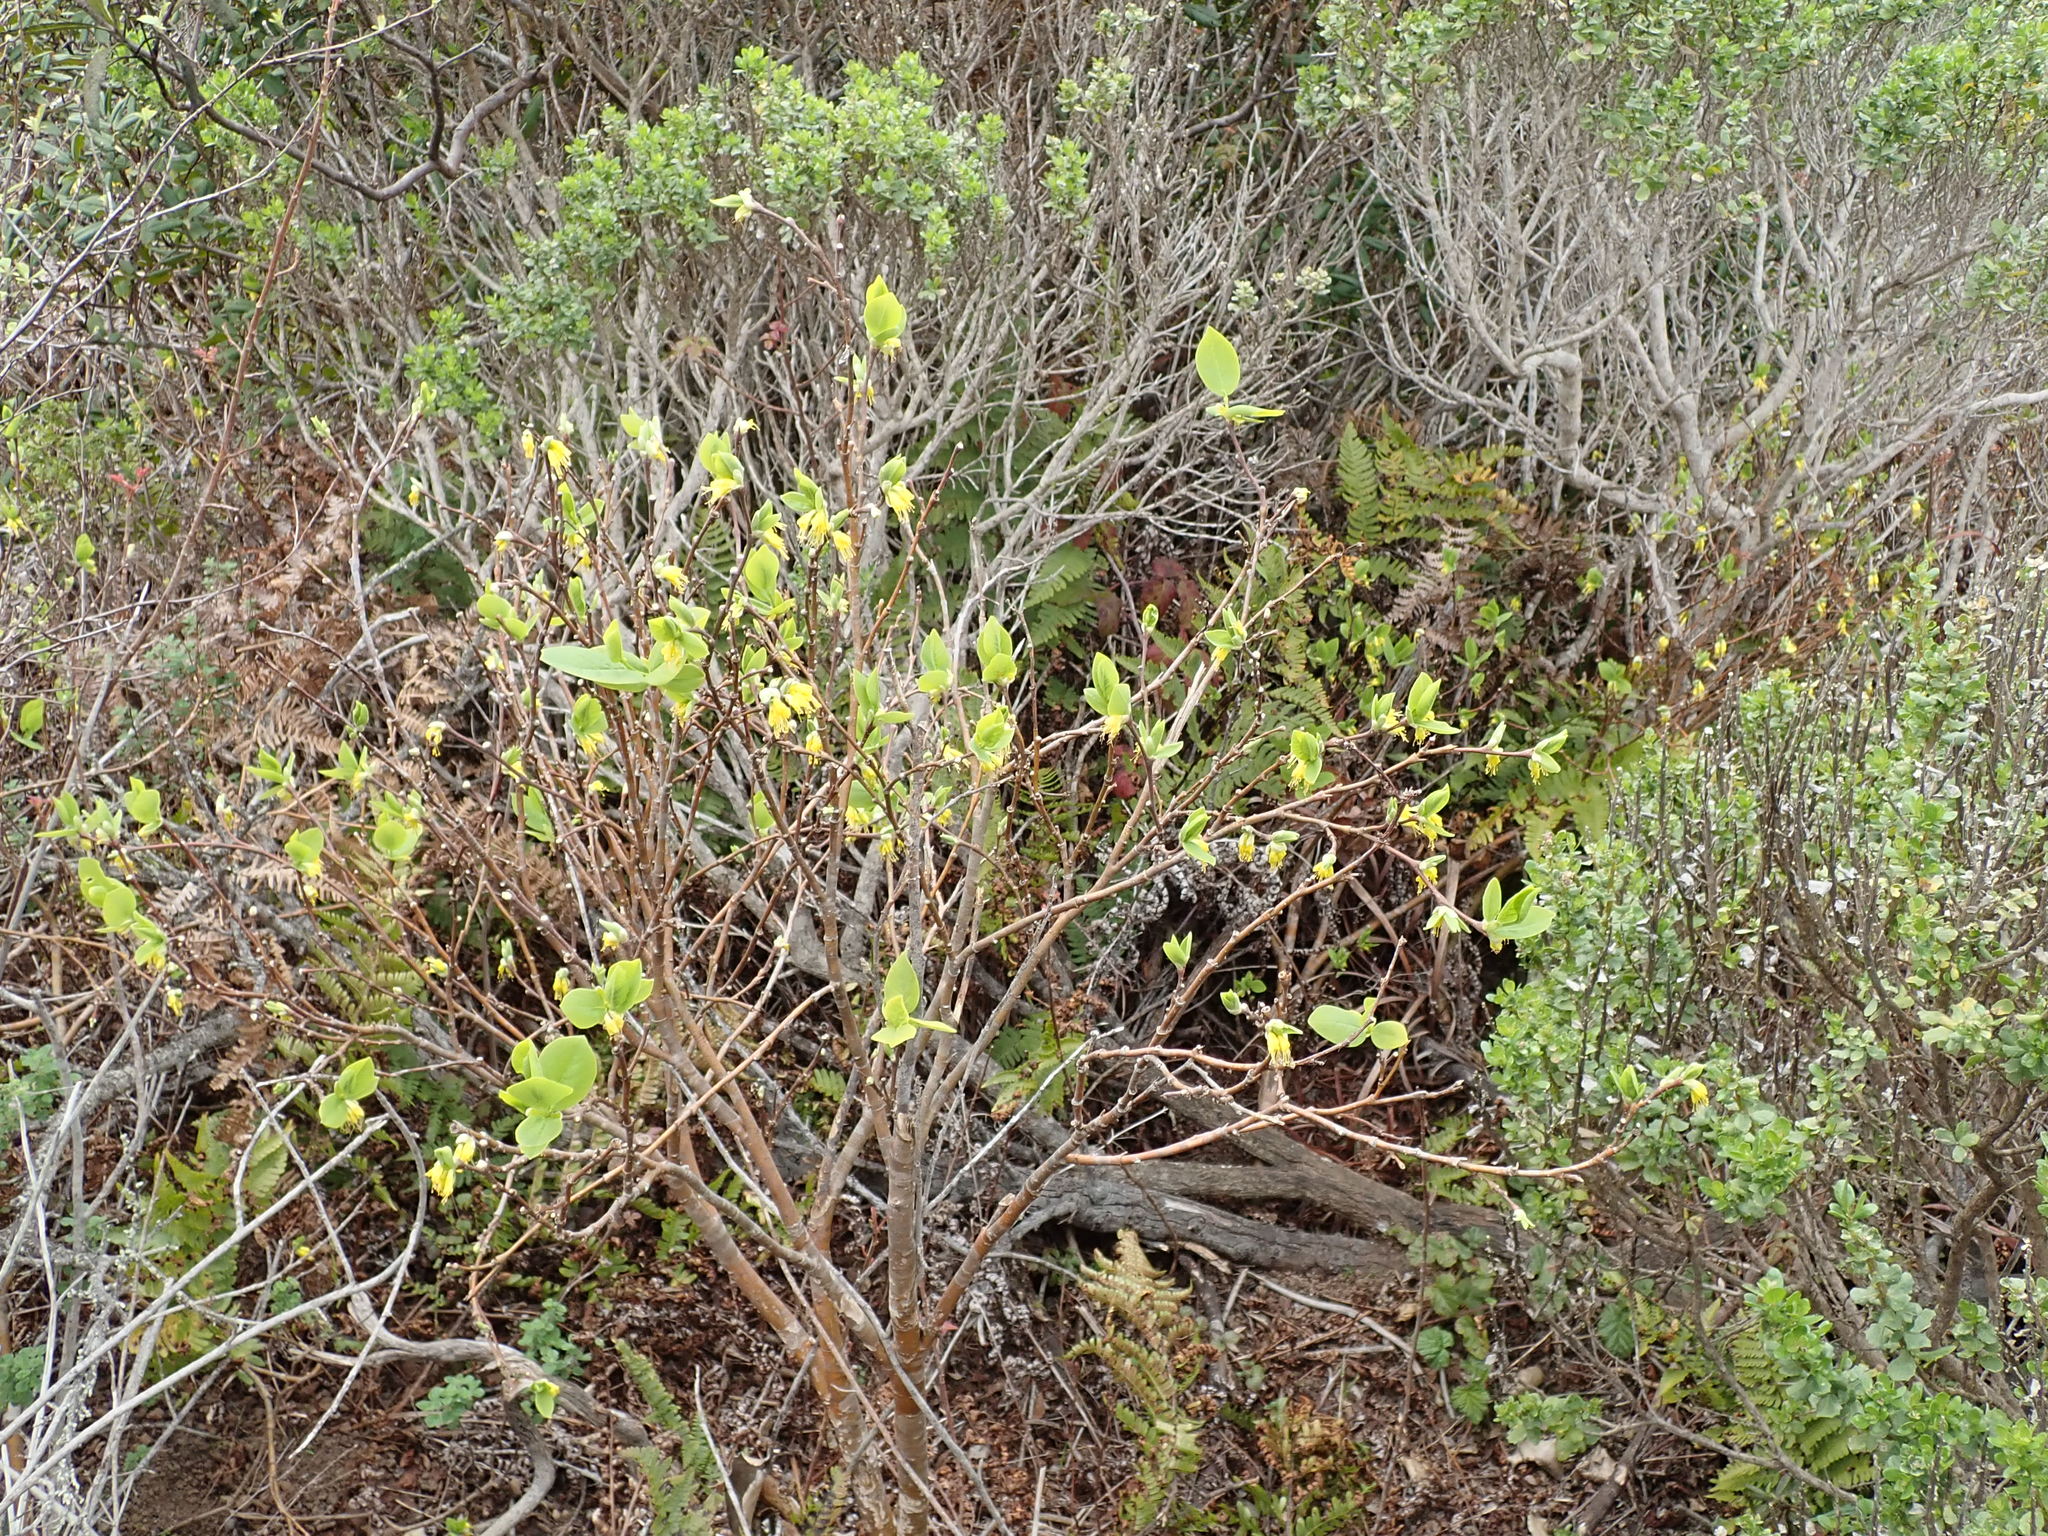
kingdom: Plantae
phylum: Tracheophyta
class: Magnoliopsida
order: Malvales
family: Thymelaeaceae
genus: Dirca
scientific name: Dirca occidentalis
